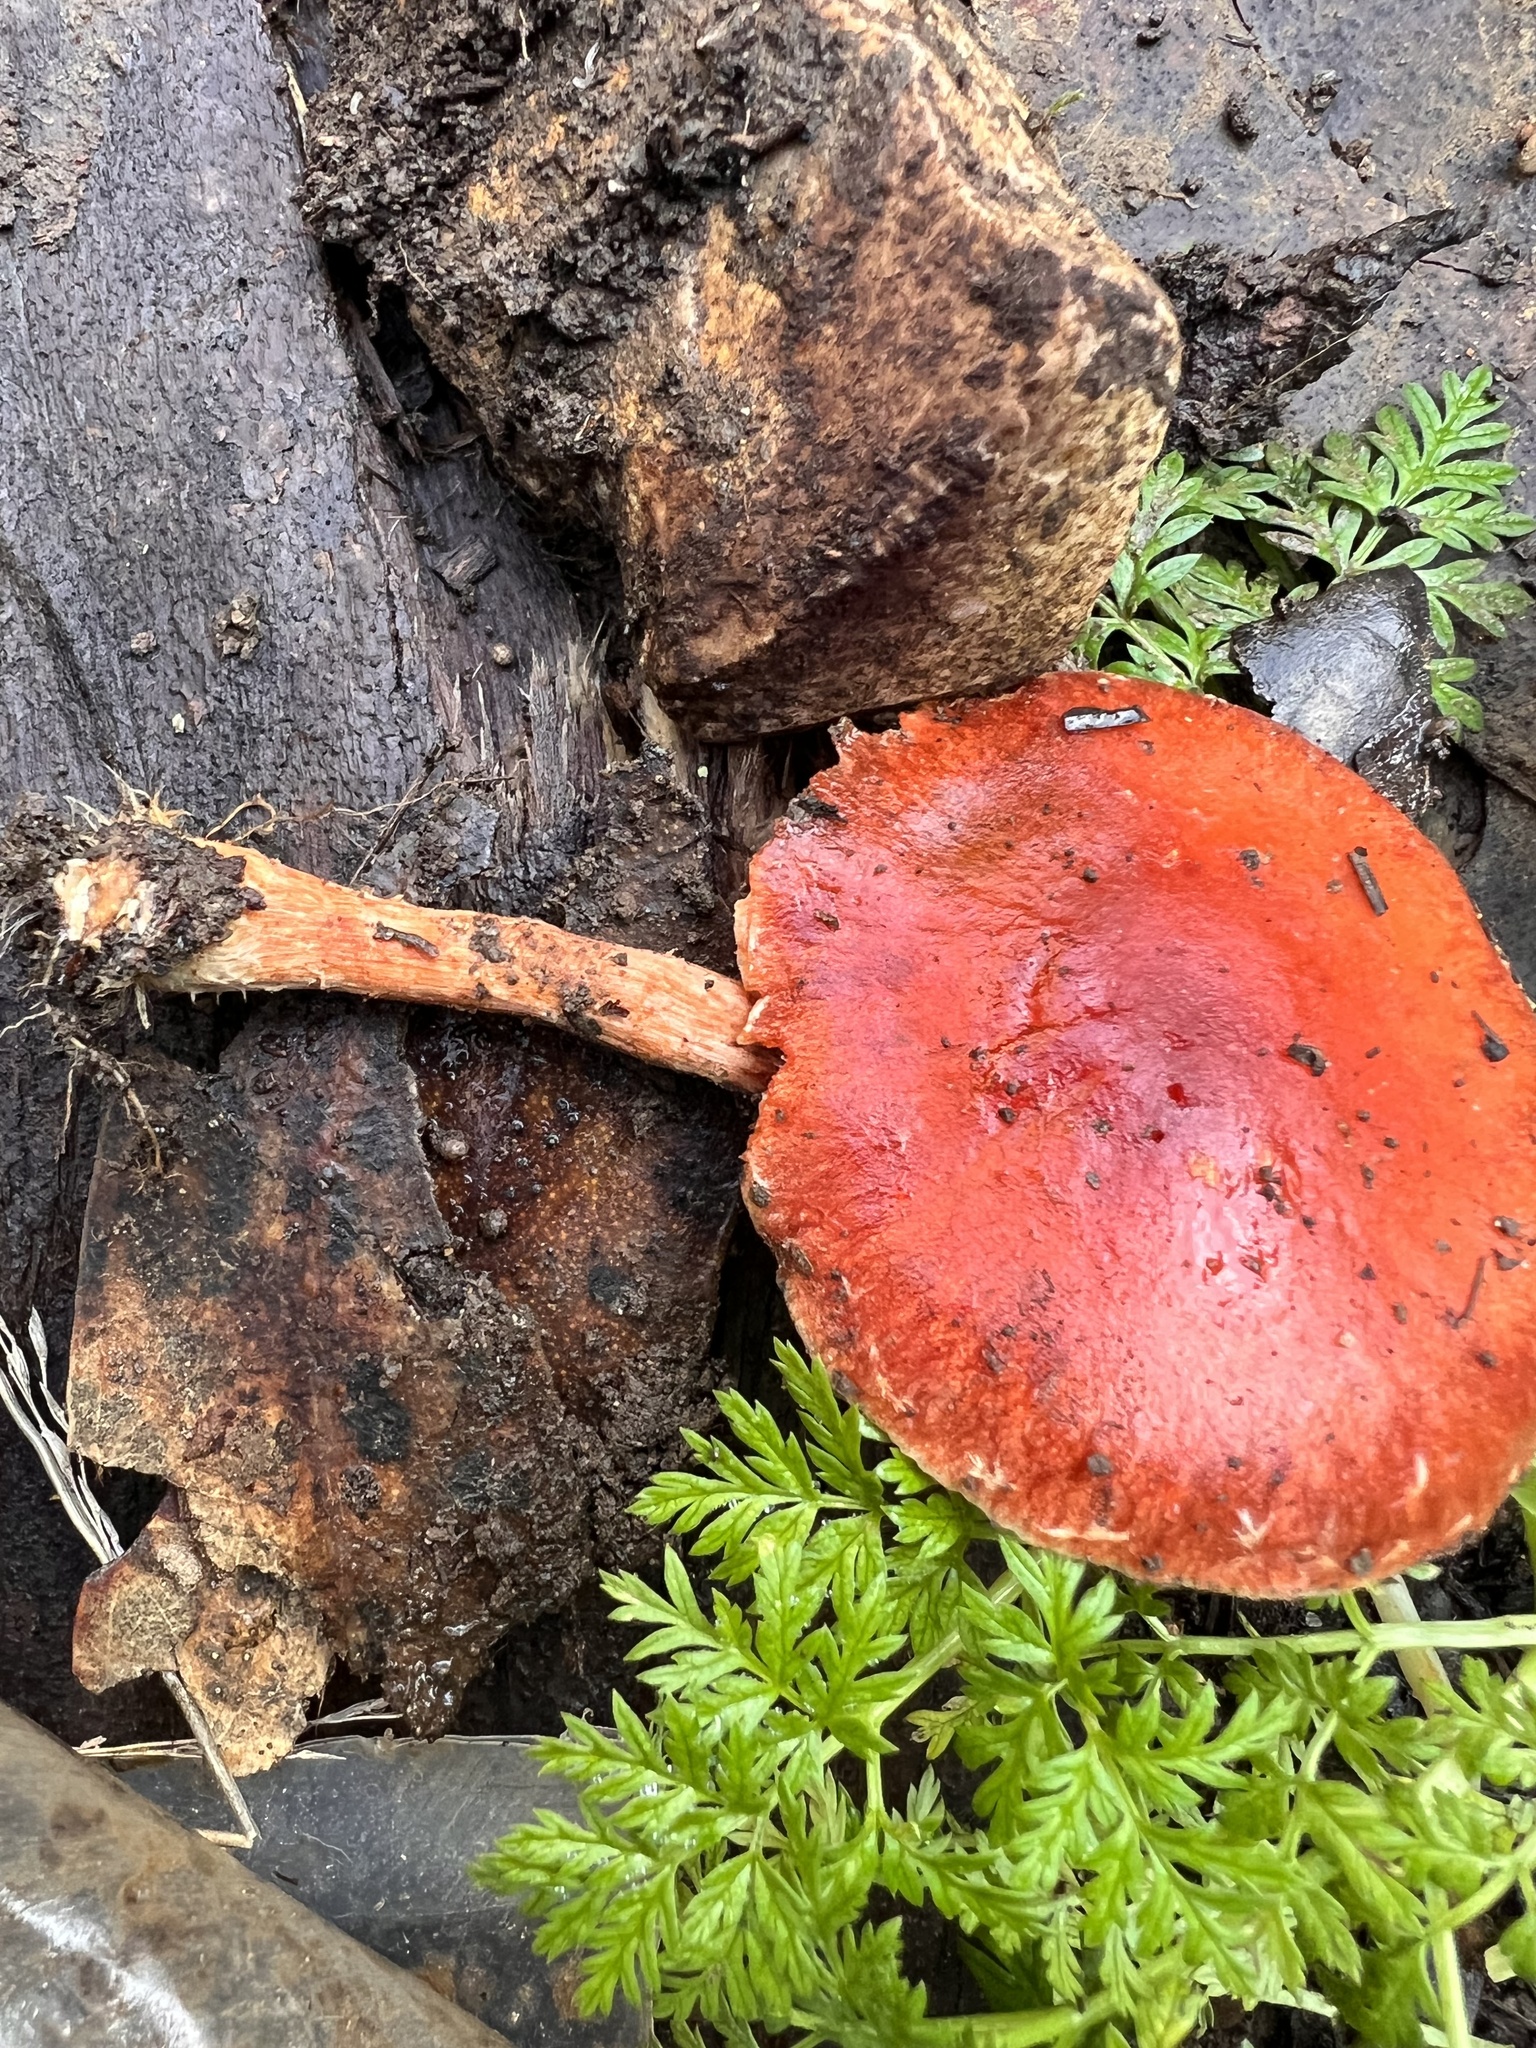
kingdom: Fungi
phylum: Basidiomycota
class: Agaricomycetes
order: Agaricales
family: Strophariaceae
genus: Leratiomyces
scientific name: Leratiomyces ceres
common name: Redlead roundhead
